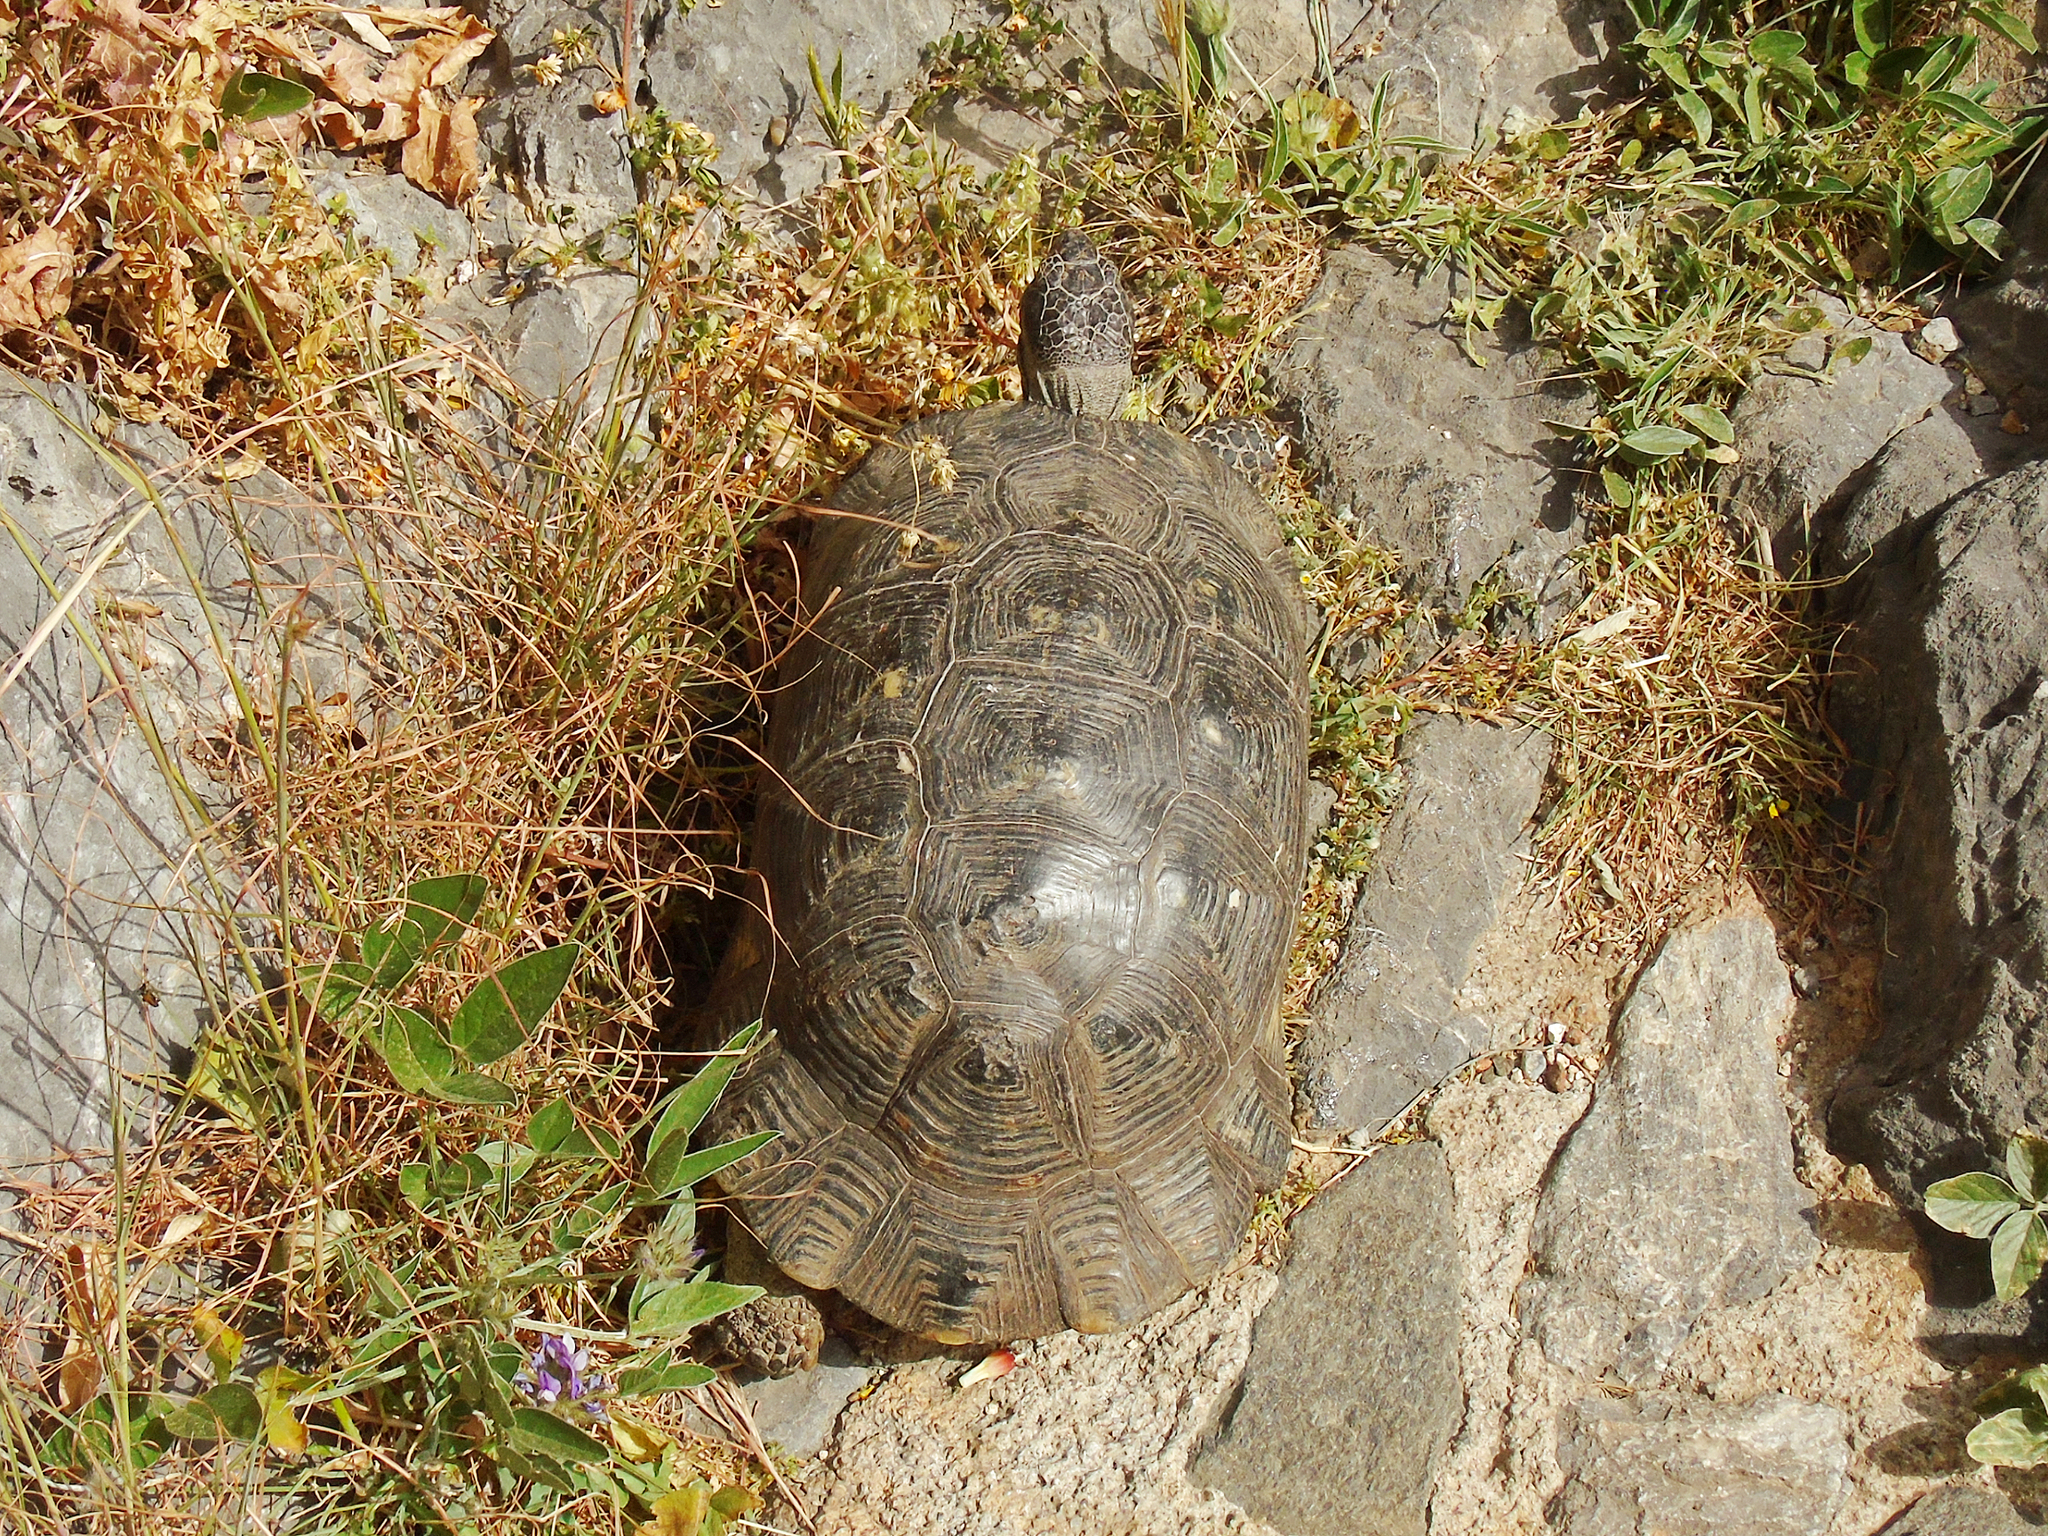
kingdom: Animalia
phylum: Chordata
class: Testudines
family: Testudinidae
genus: Testudo
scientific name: Testudo marginata
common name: Marginated tortoise
